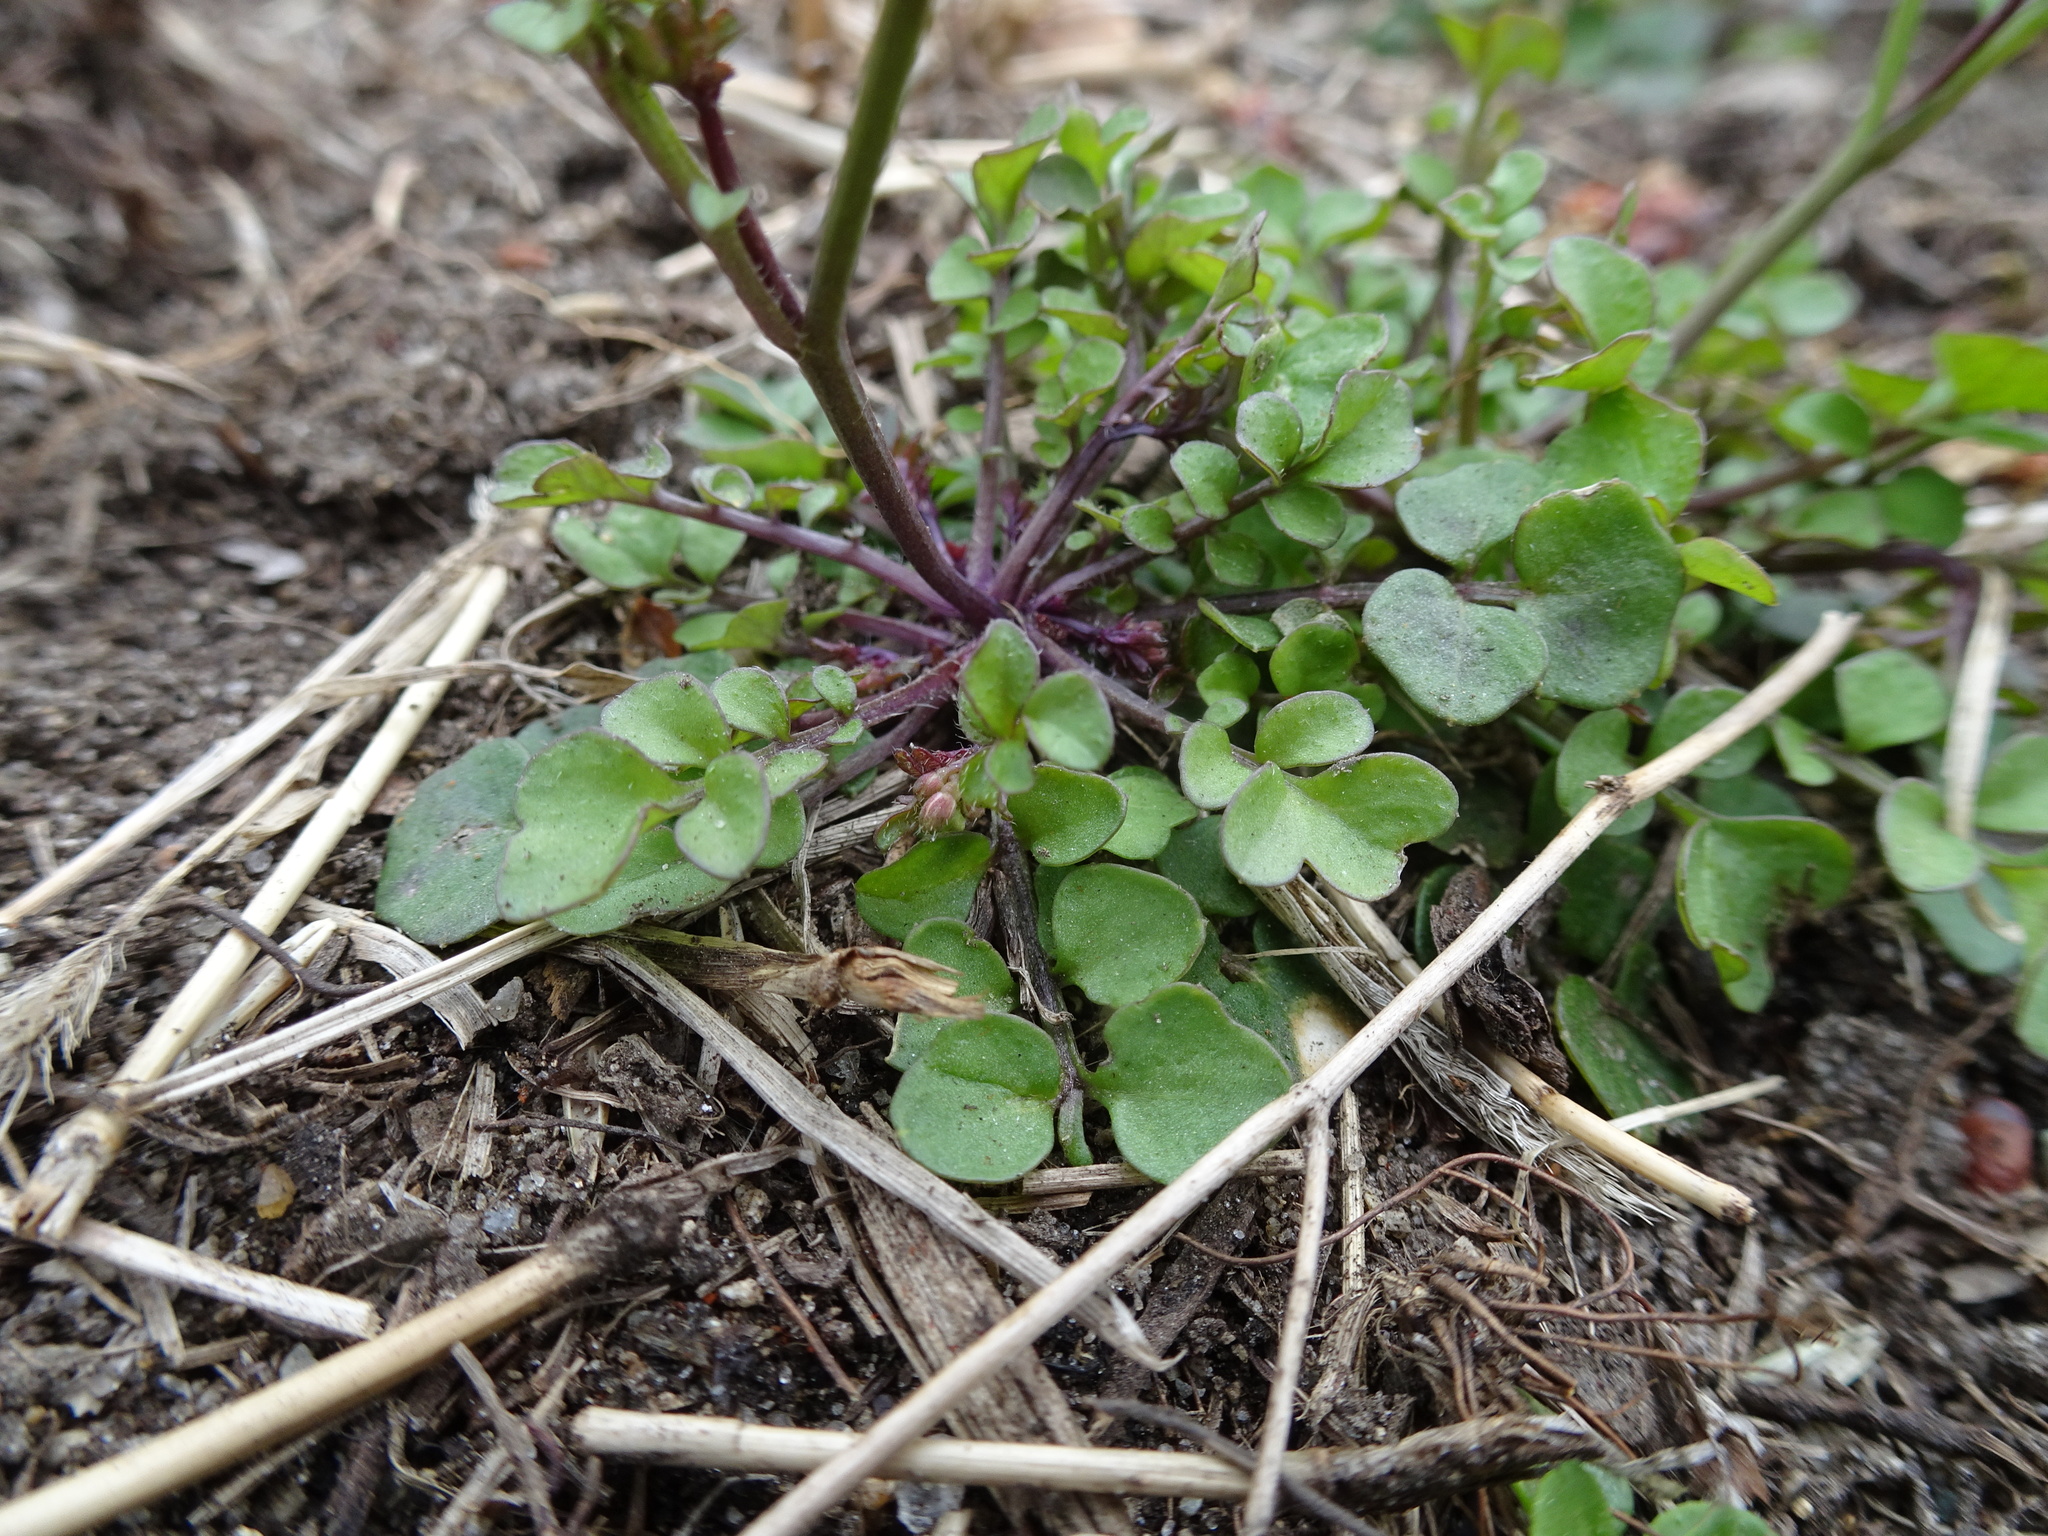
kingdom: Plantae
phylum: Tracheophyta
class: Magnoliopsida
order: Brassicales
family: Brassicaceae
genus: Cardamine
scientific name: Cardamine hirsuta
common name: Hairy bittercress
